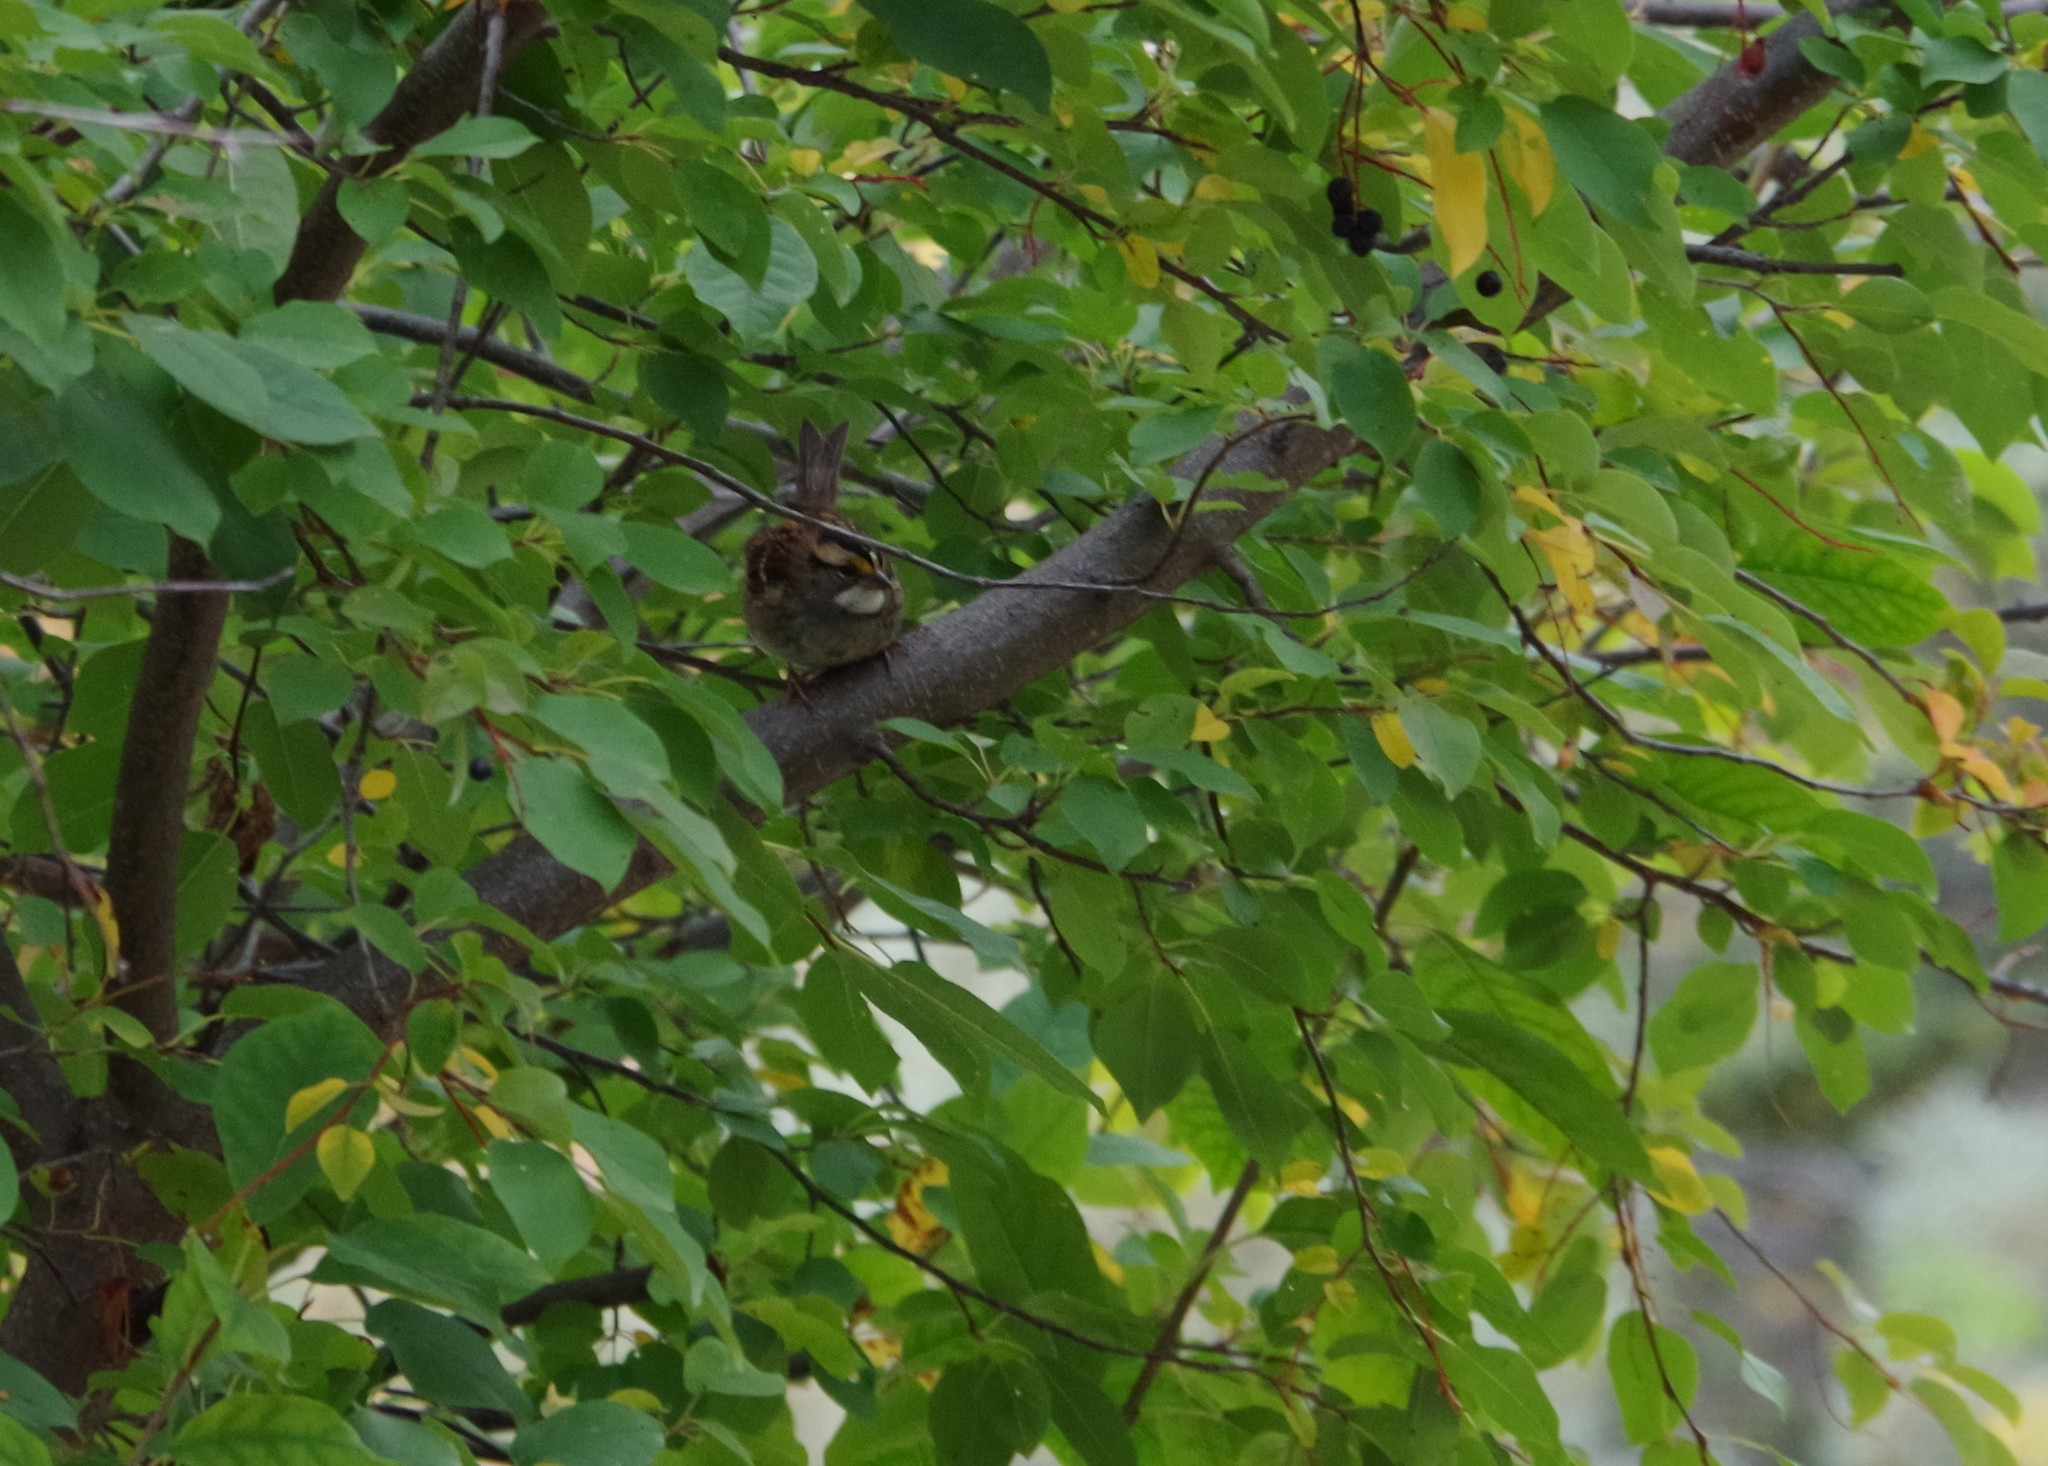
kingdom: Animalia
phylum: Chordata
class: Aves
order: Passeriformes
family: Passerellidae
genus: Zonotrichia
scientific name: Zonotrichia albicollis
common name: White-throated sparrow
